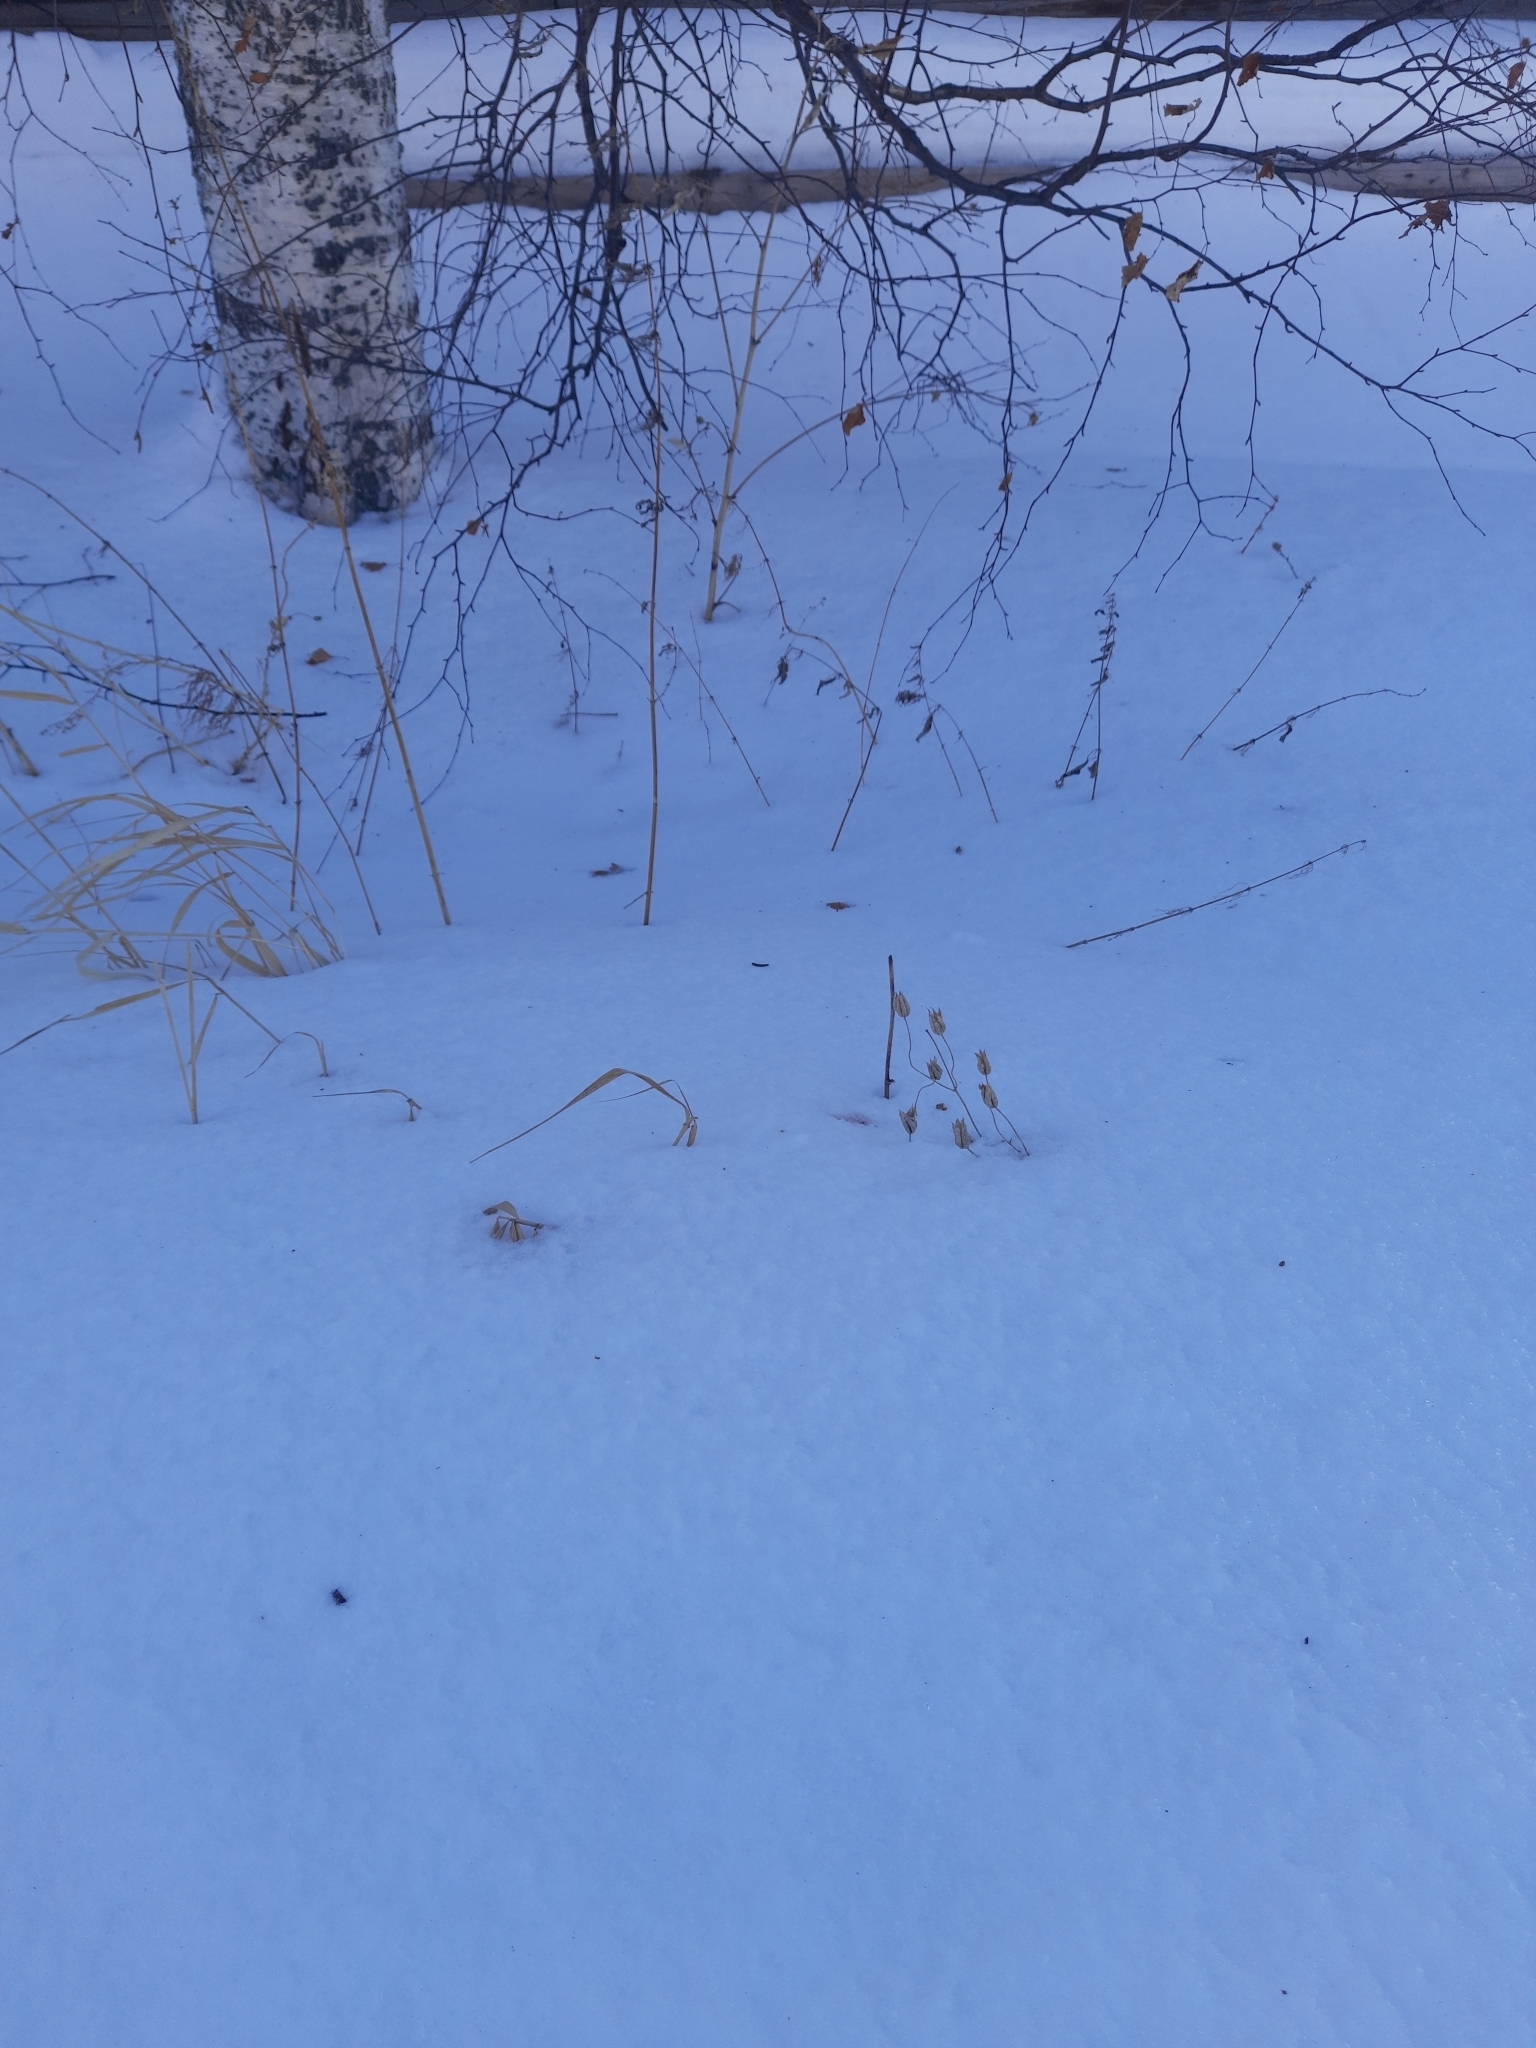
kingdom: Plantae
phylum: Tracheophyta
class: Magnoliopsida
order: Ranunculales
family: Ranunculaceae
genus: Aquilegia
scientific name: Aquilegia vulgaris
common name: Columbine
